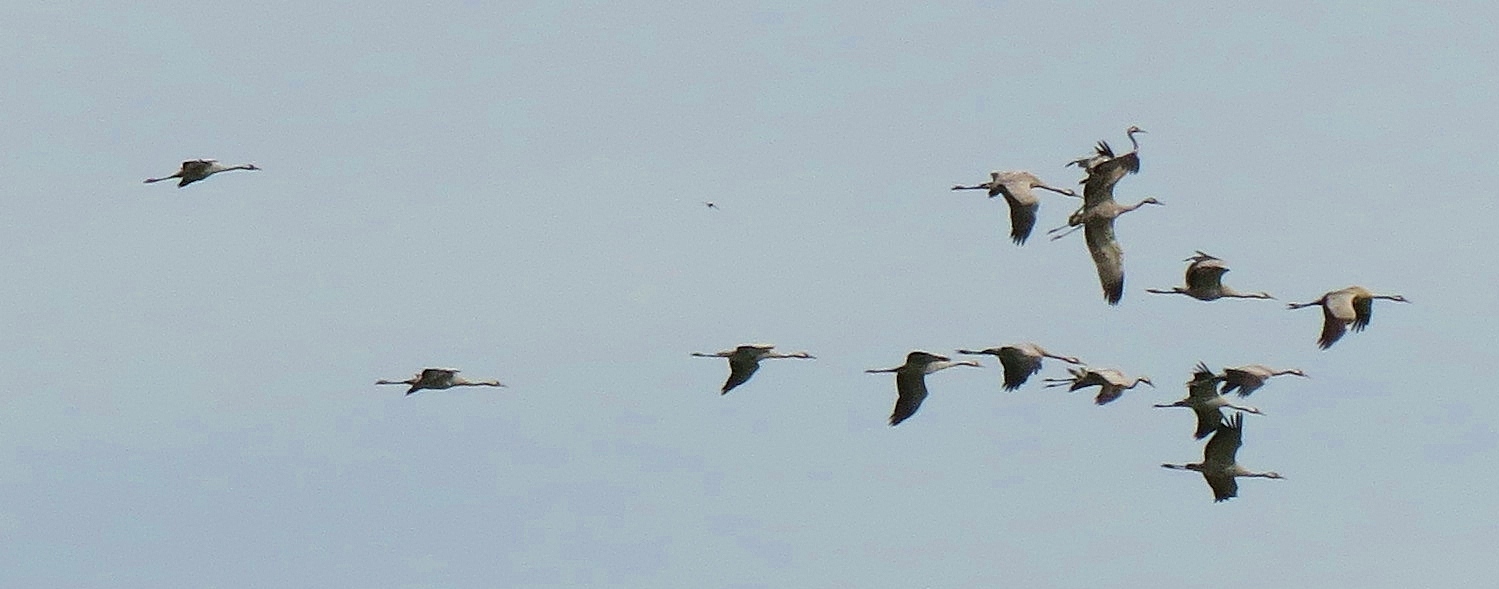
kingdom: Animalia
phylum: Chordata
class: Aves
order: Gruiformes
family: Gruidae
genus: Grus
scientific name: Grus grus
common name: Common crane
